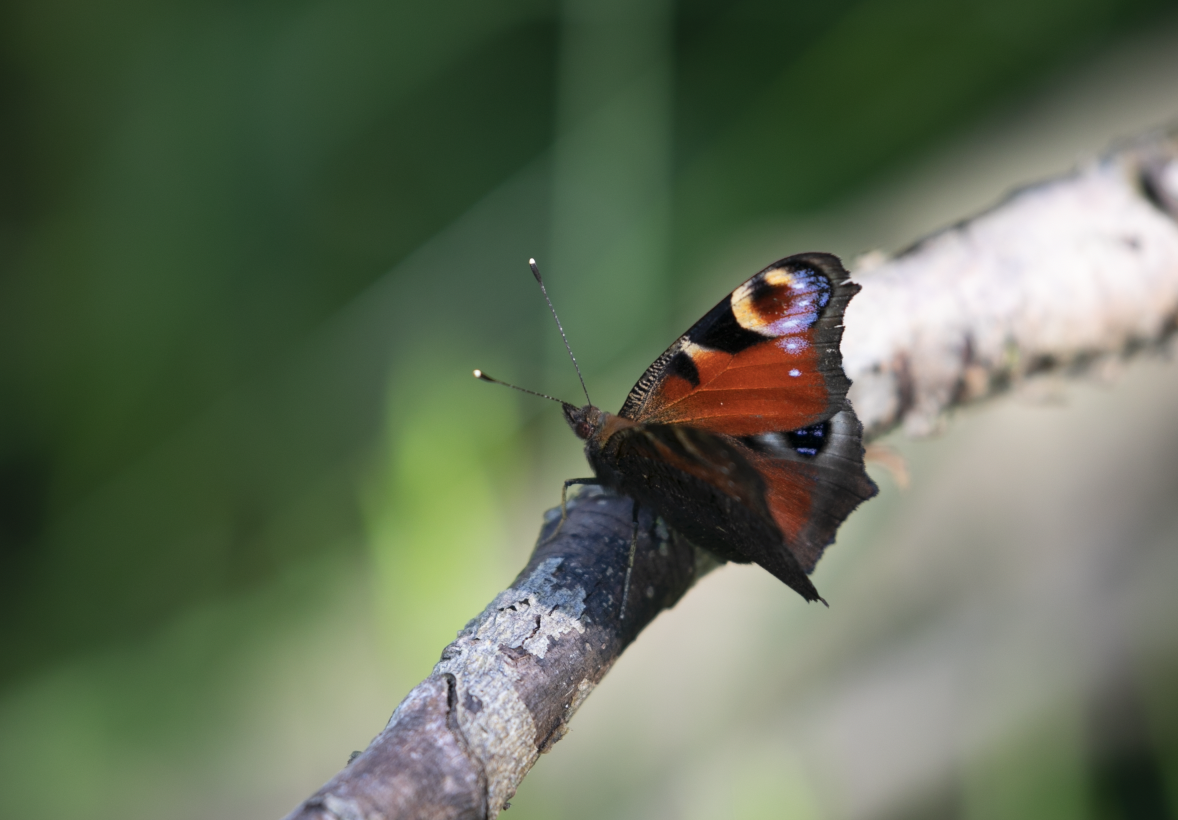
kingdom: Animalia
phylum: Arthropoda
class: Insecta
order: Lepidoptera
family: Nymphalidae
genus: Aglais
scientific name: Aglais io
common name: Peacock
